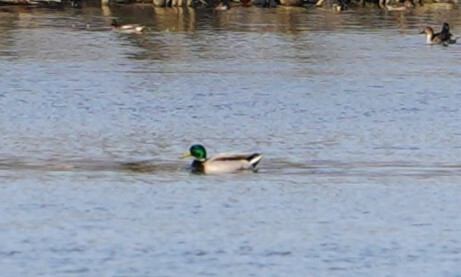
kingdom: Animalia
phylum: Chordata
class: Aves
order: Anseriformes
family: Anatidae
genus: Anas
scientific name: Anas platyrhynchos
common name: Mallard
